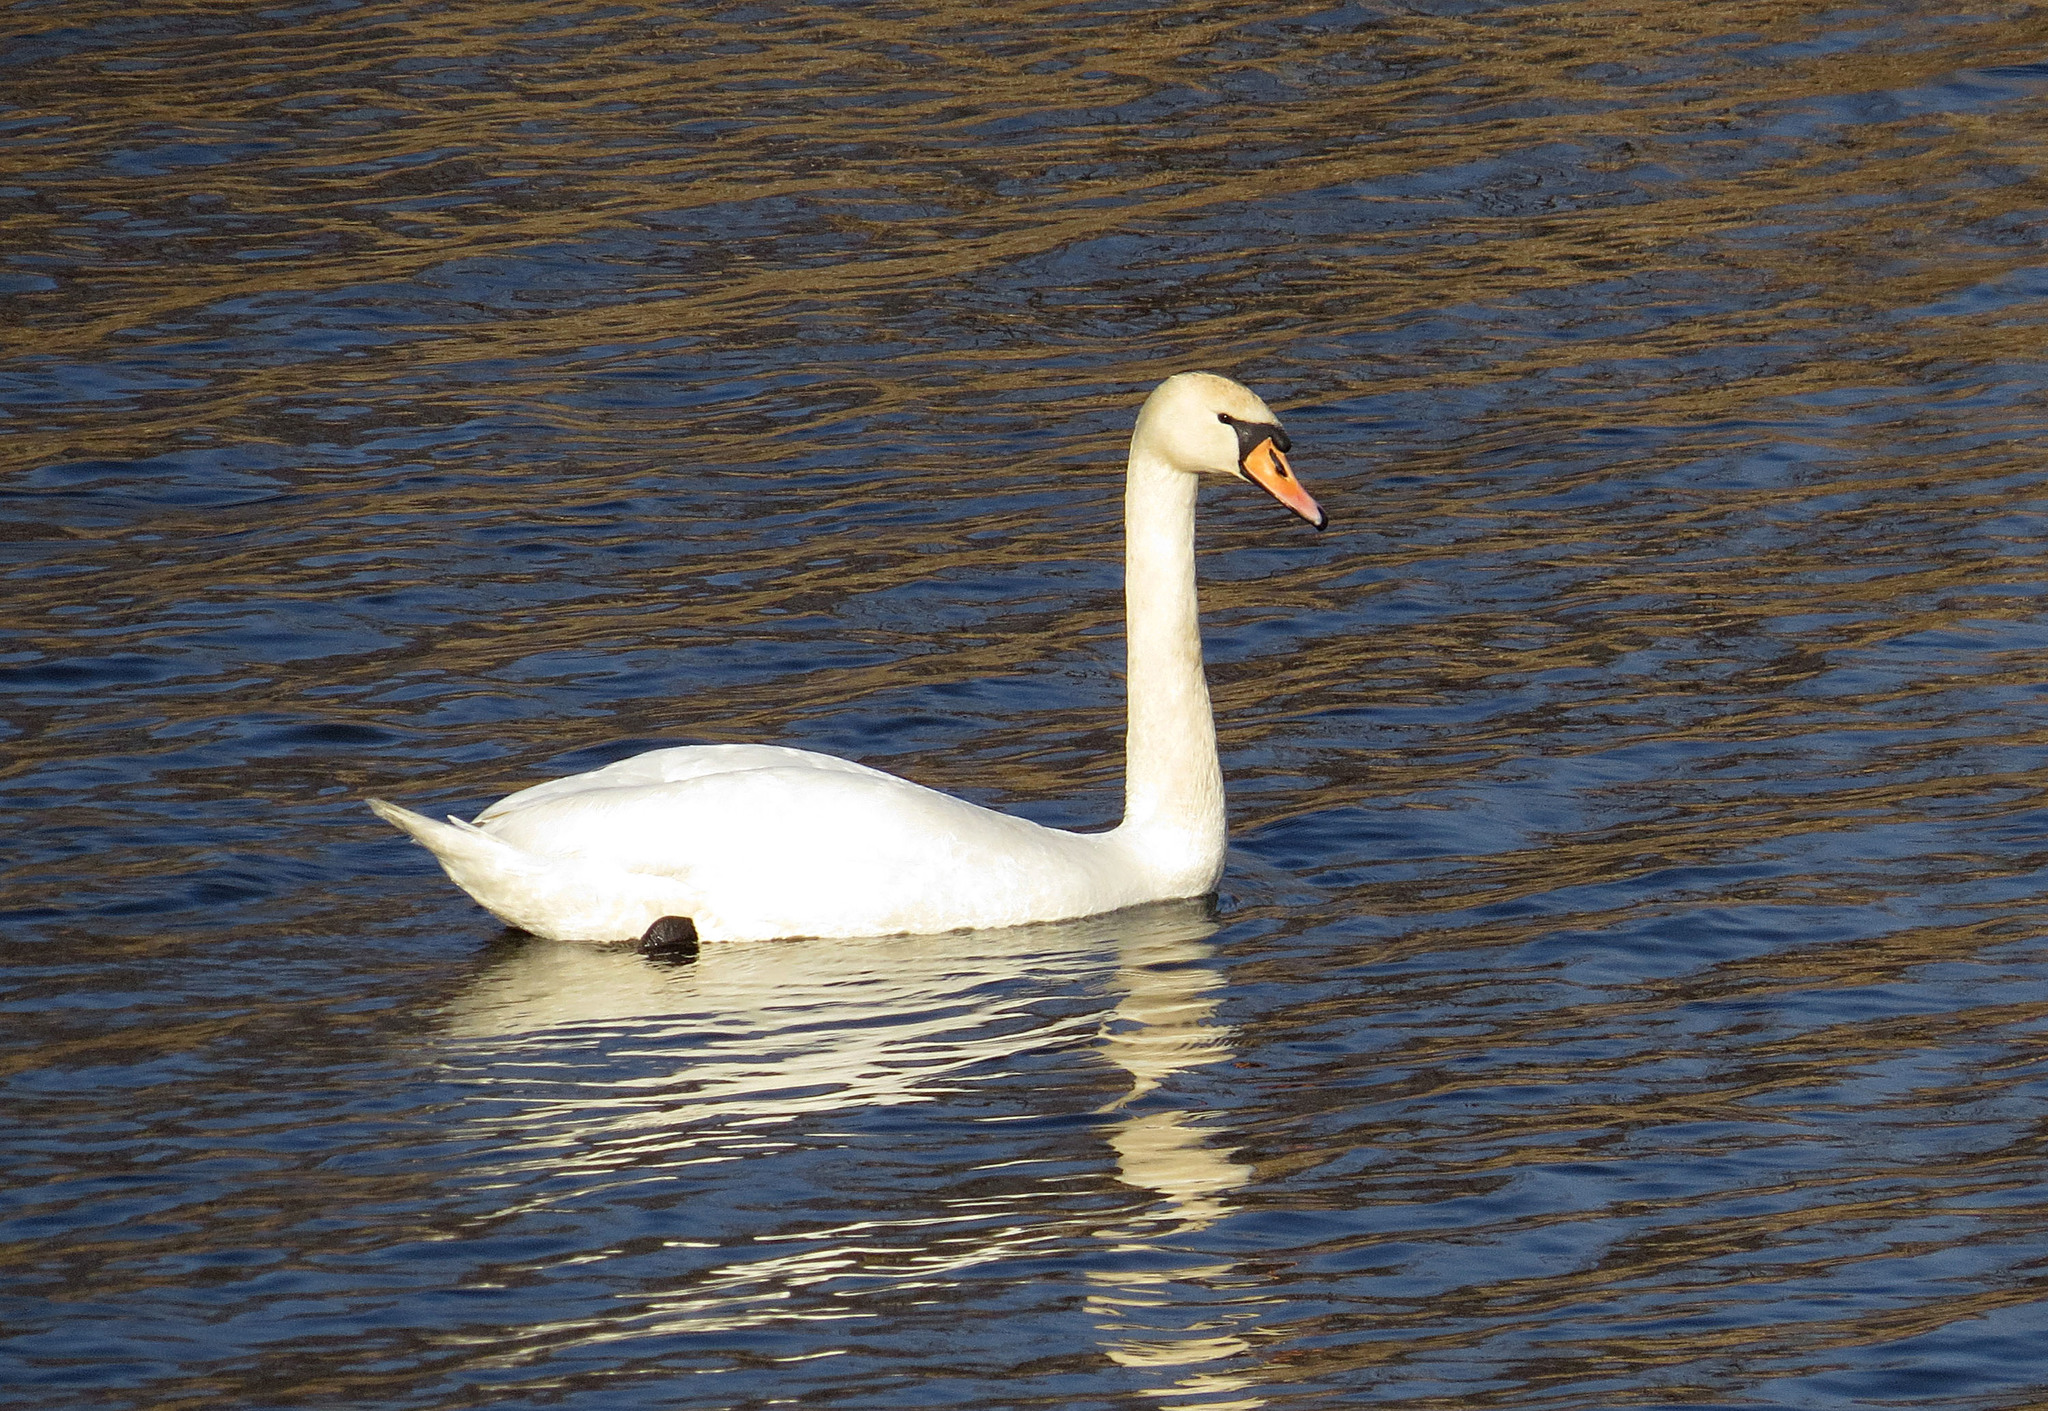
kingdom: Animalia
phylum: Chordata
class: Aves
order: Anseriformes
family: Anatidae
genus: Cygnus
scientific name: Cygnus olor
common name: Mute swan
